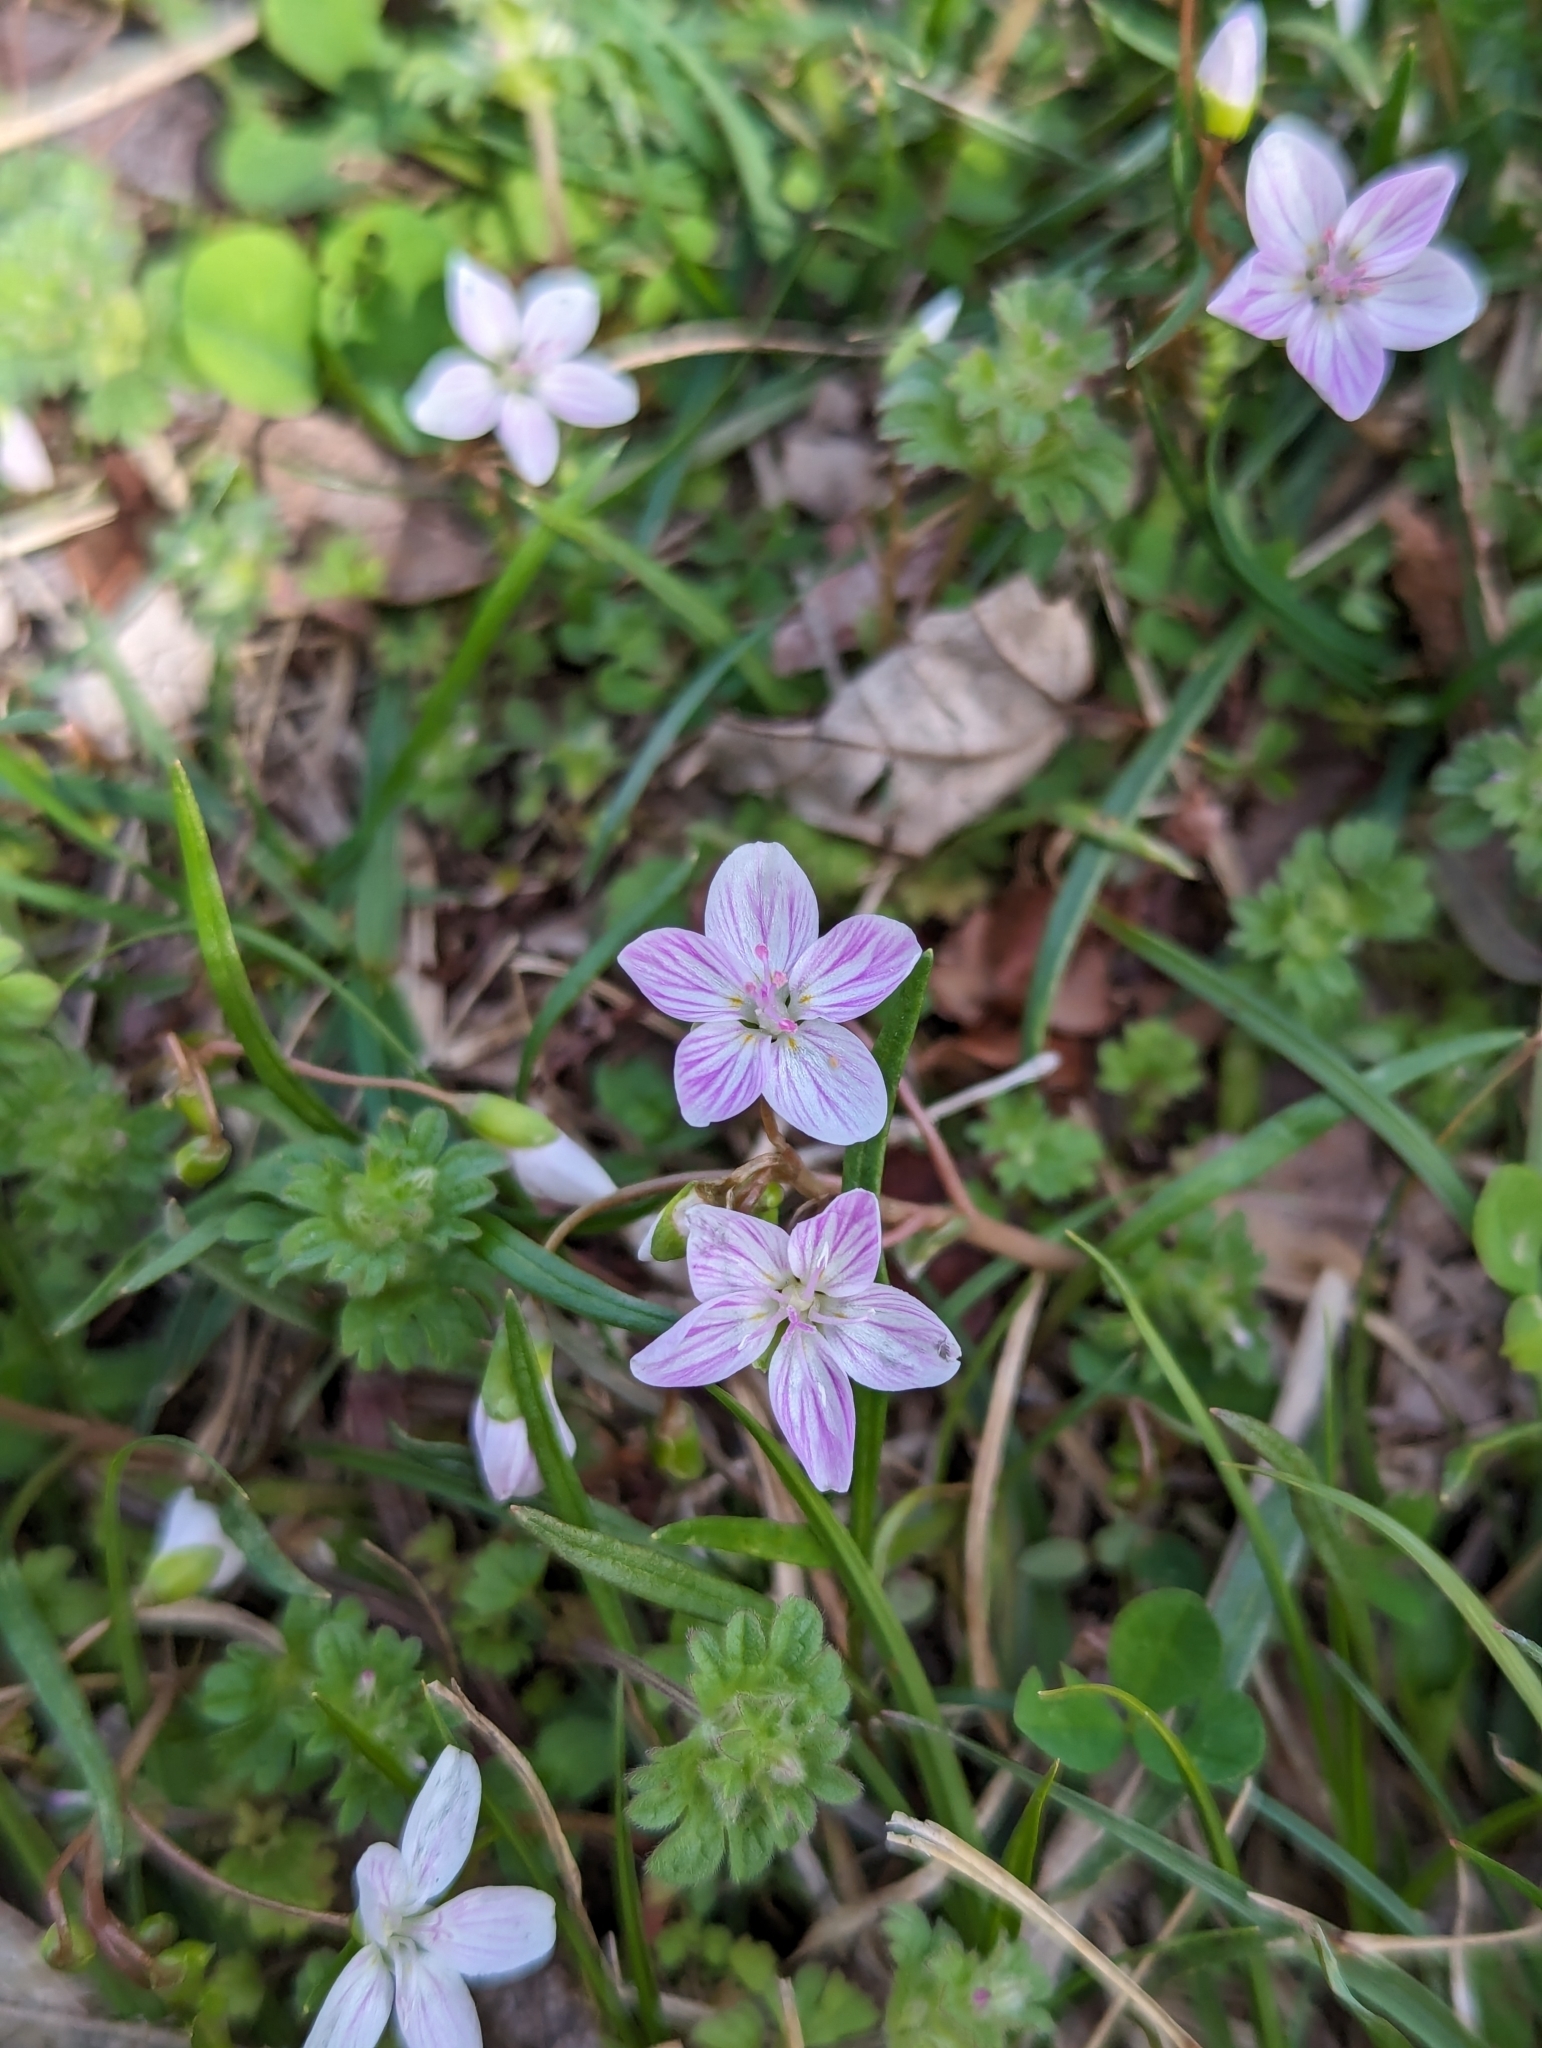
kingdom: Plantae
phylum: Tracheophyta
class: Magnoliopsida
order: Caryophyllales
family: Montiaceae
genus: Claytonia
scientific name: Claytonia virginica
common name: Virginia springbeauty
